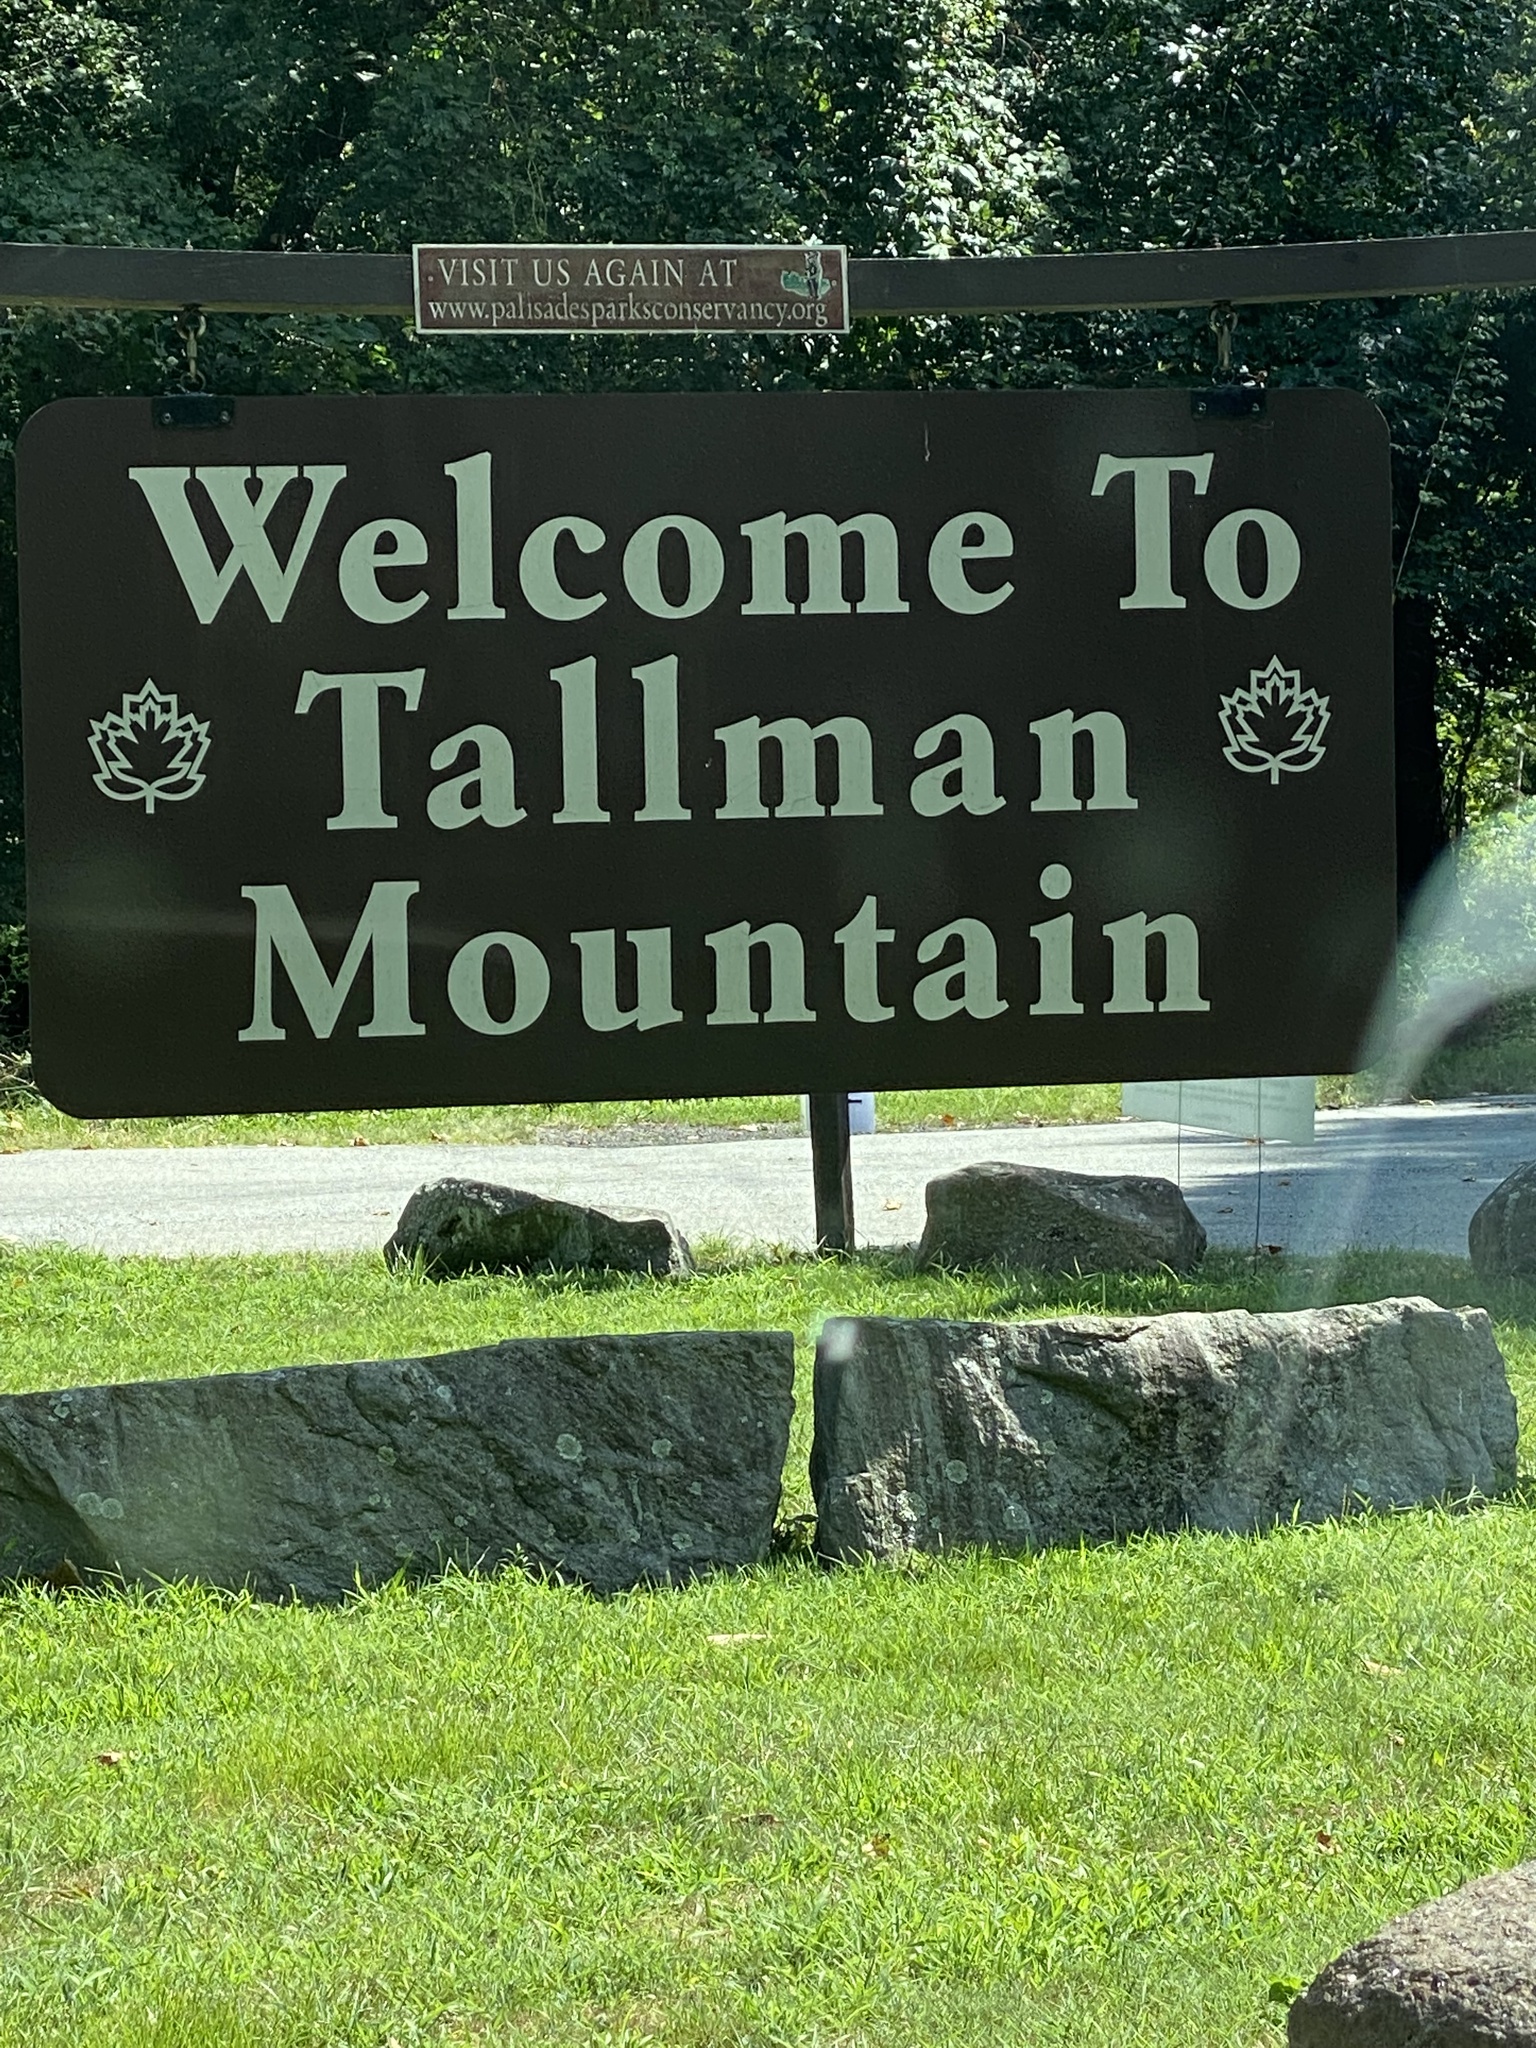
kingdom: Plantae
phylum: Tracheophyta
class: Magnoliopsida
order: Laurales
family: Lauraceae
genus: Lindera
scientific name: Lindera benzoin
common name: Spicebush
